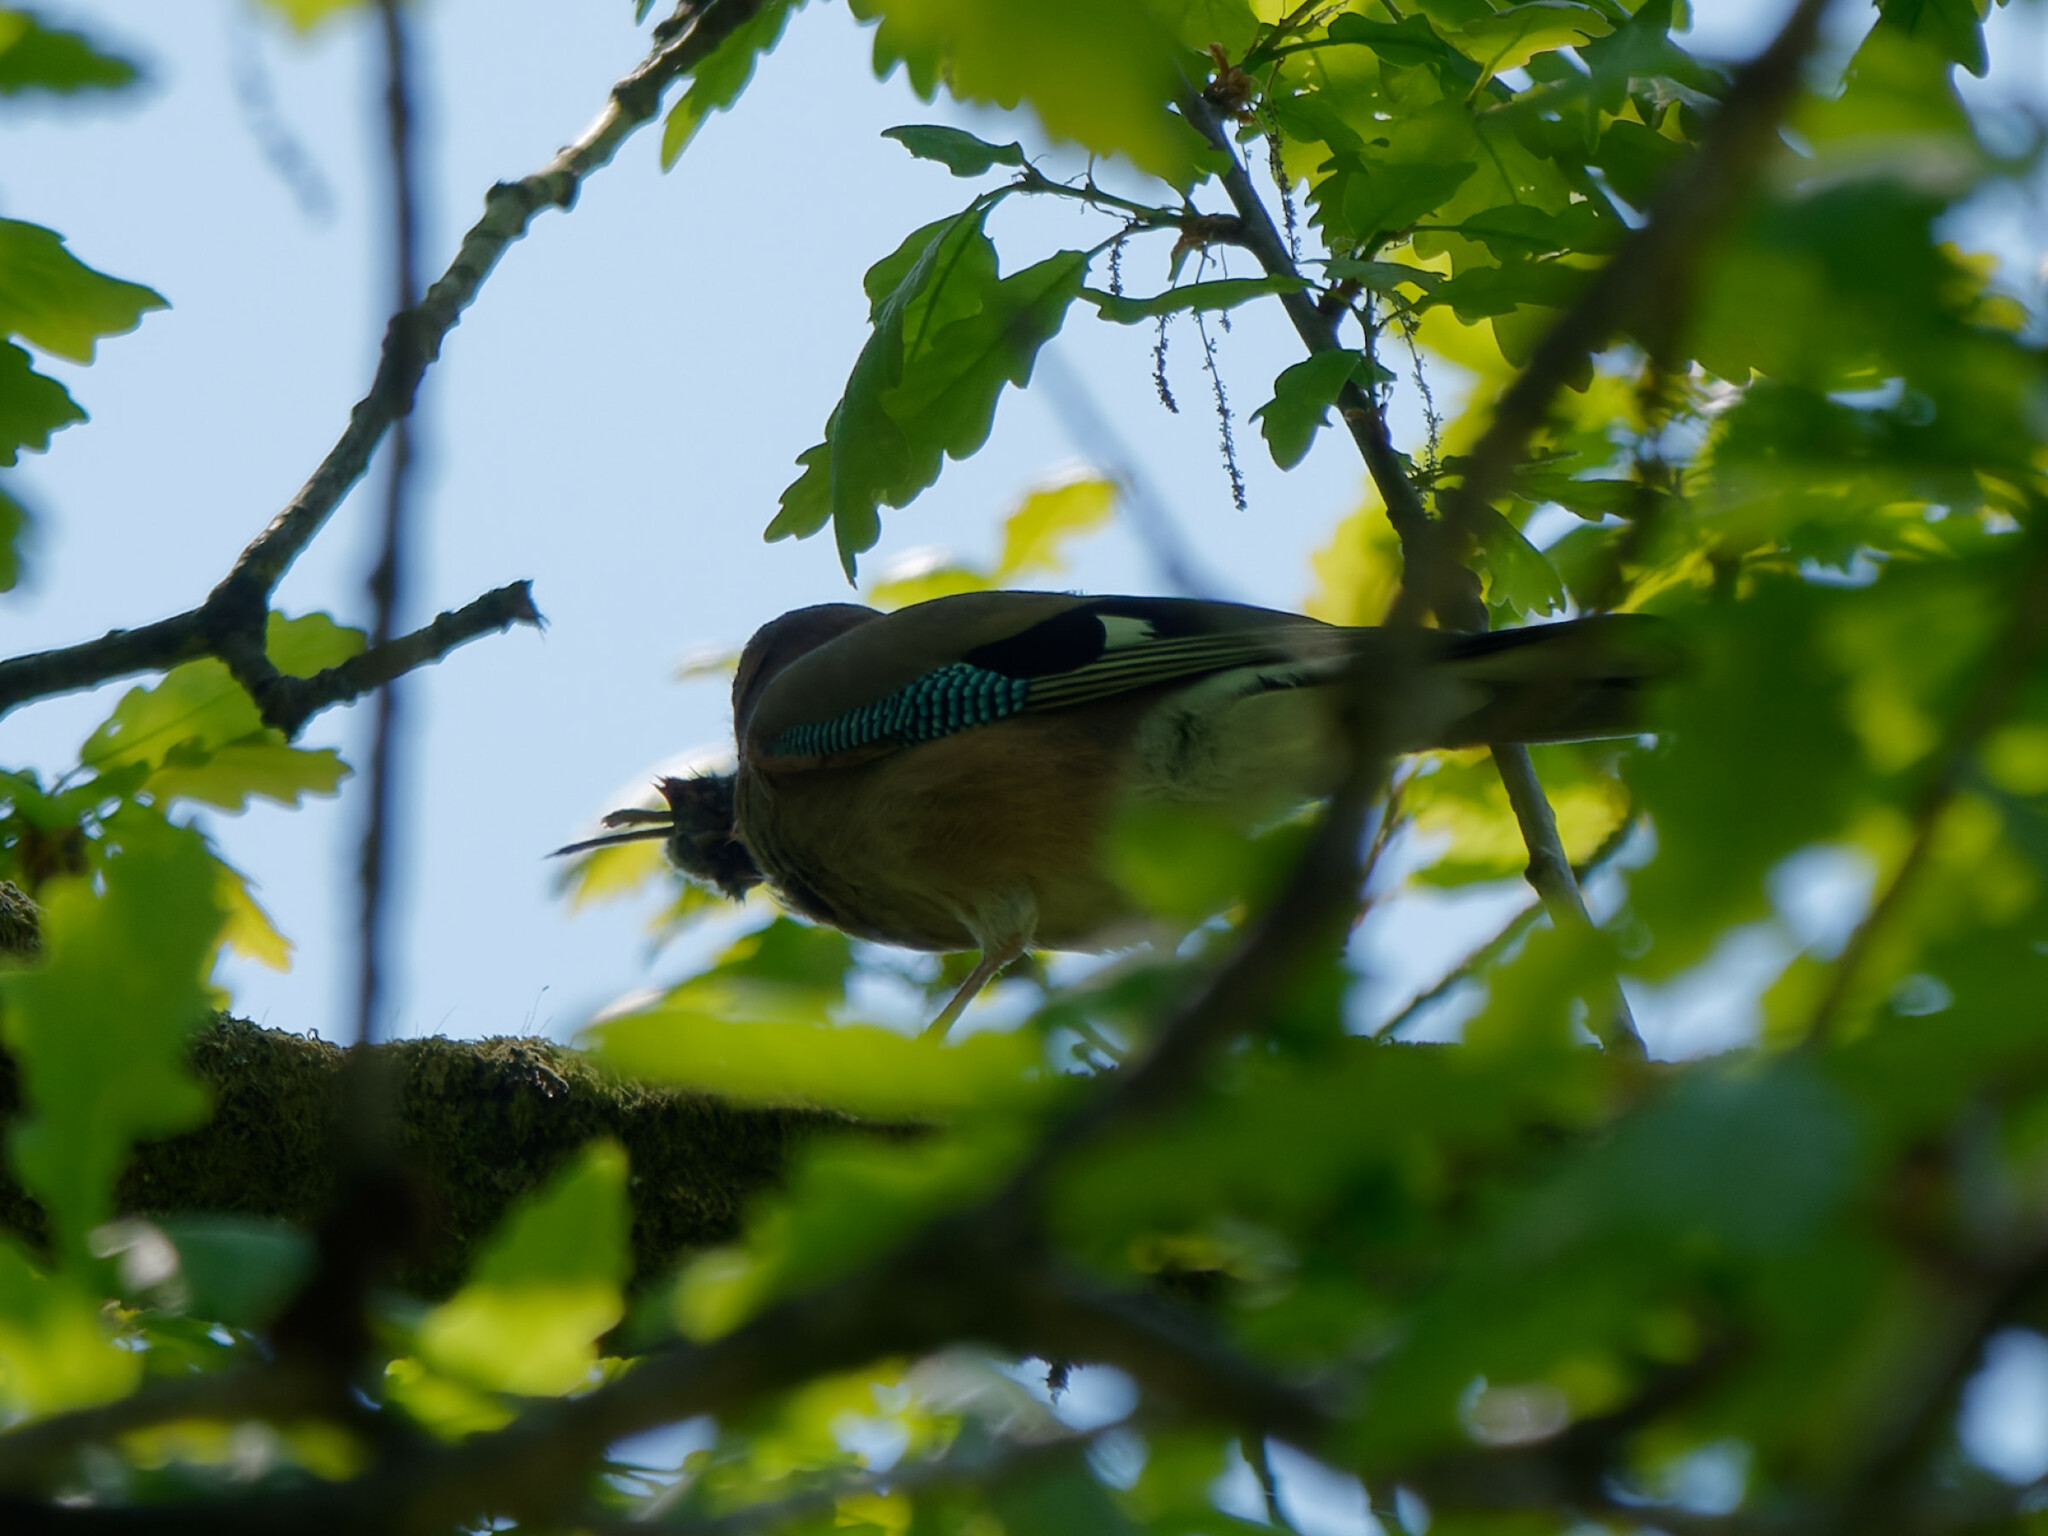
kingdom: Animalia
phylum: Chordata
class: Aves
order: Passeriformes
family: Corvidae
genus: Garrulus
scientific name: Garrulus glandarius
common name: Eurasian jay
